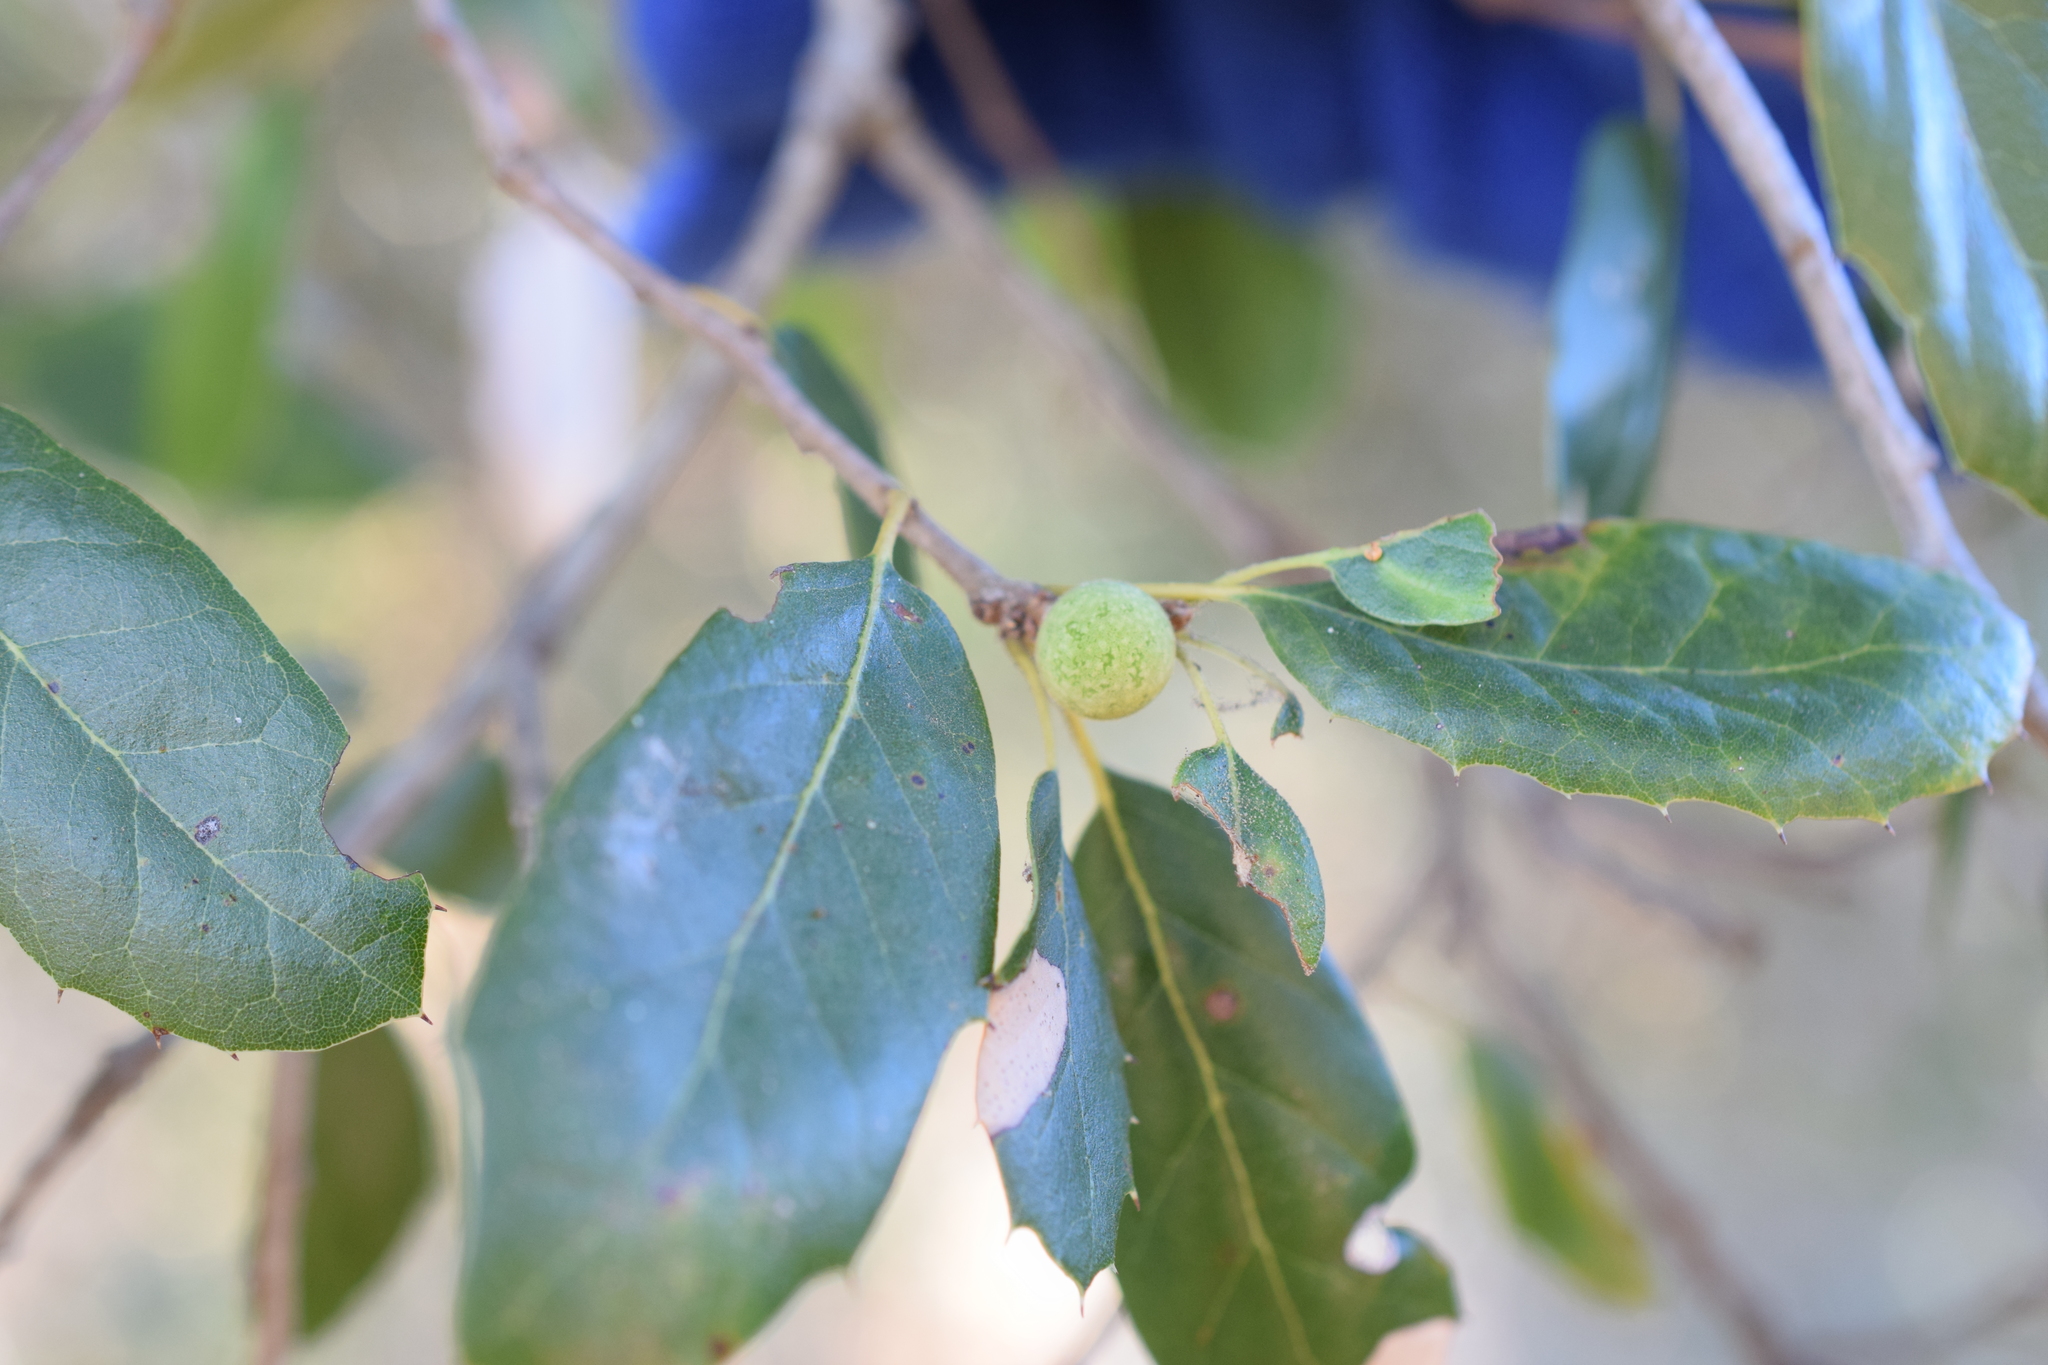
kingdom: Animalia
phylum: Arthropoda
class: Insecta
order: Hymenoptera
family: Cynipidae
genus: Callirhytis
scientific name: Callirhytis
